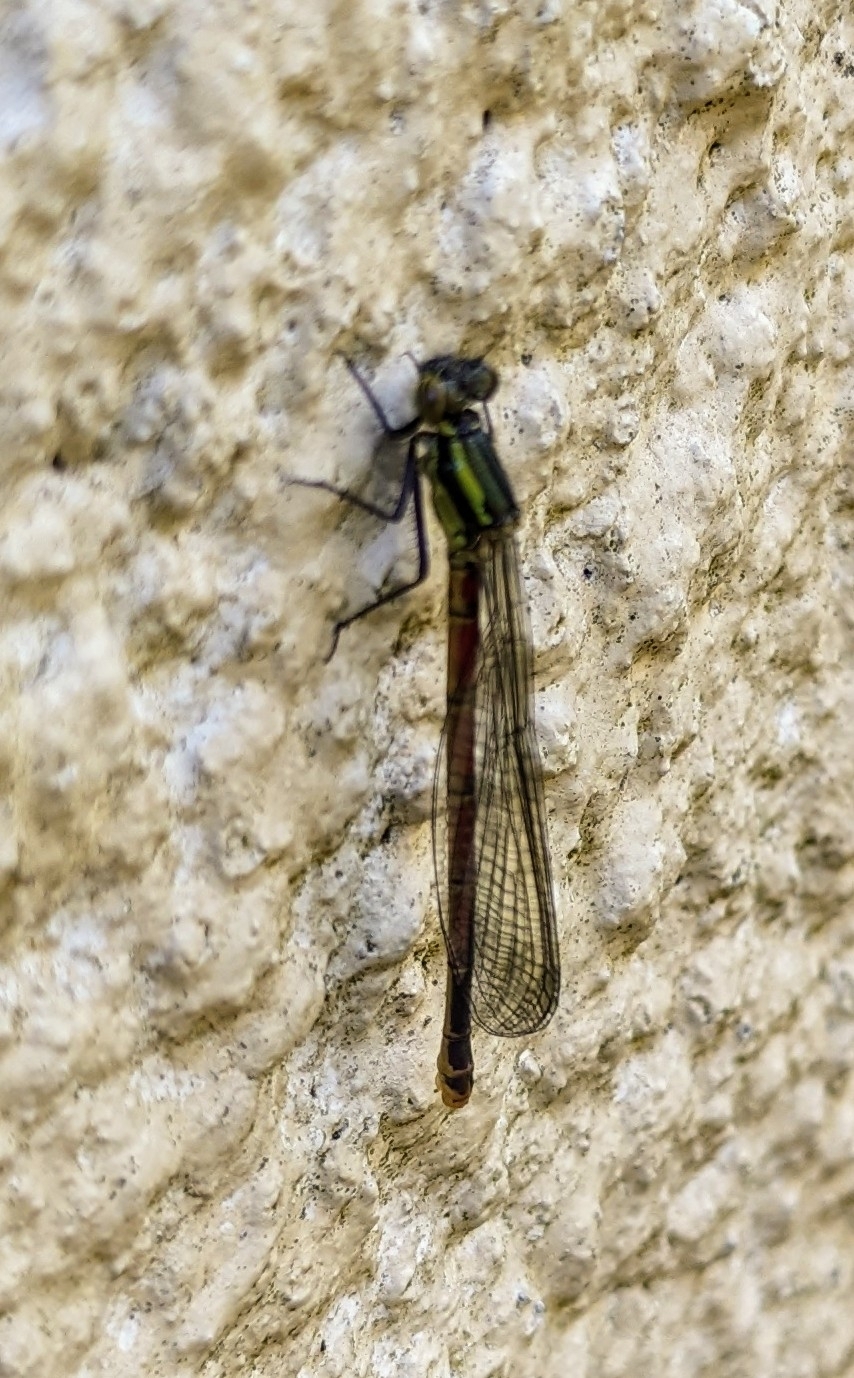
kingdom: Animalia
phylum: Arthropoda
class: Insecta
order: Odonata
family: Coenagrionidae
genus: Pyrrhosoma
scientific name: Pyrrhosoma nymphula
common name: Large red damsel
